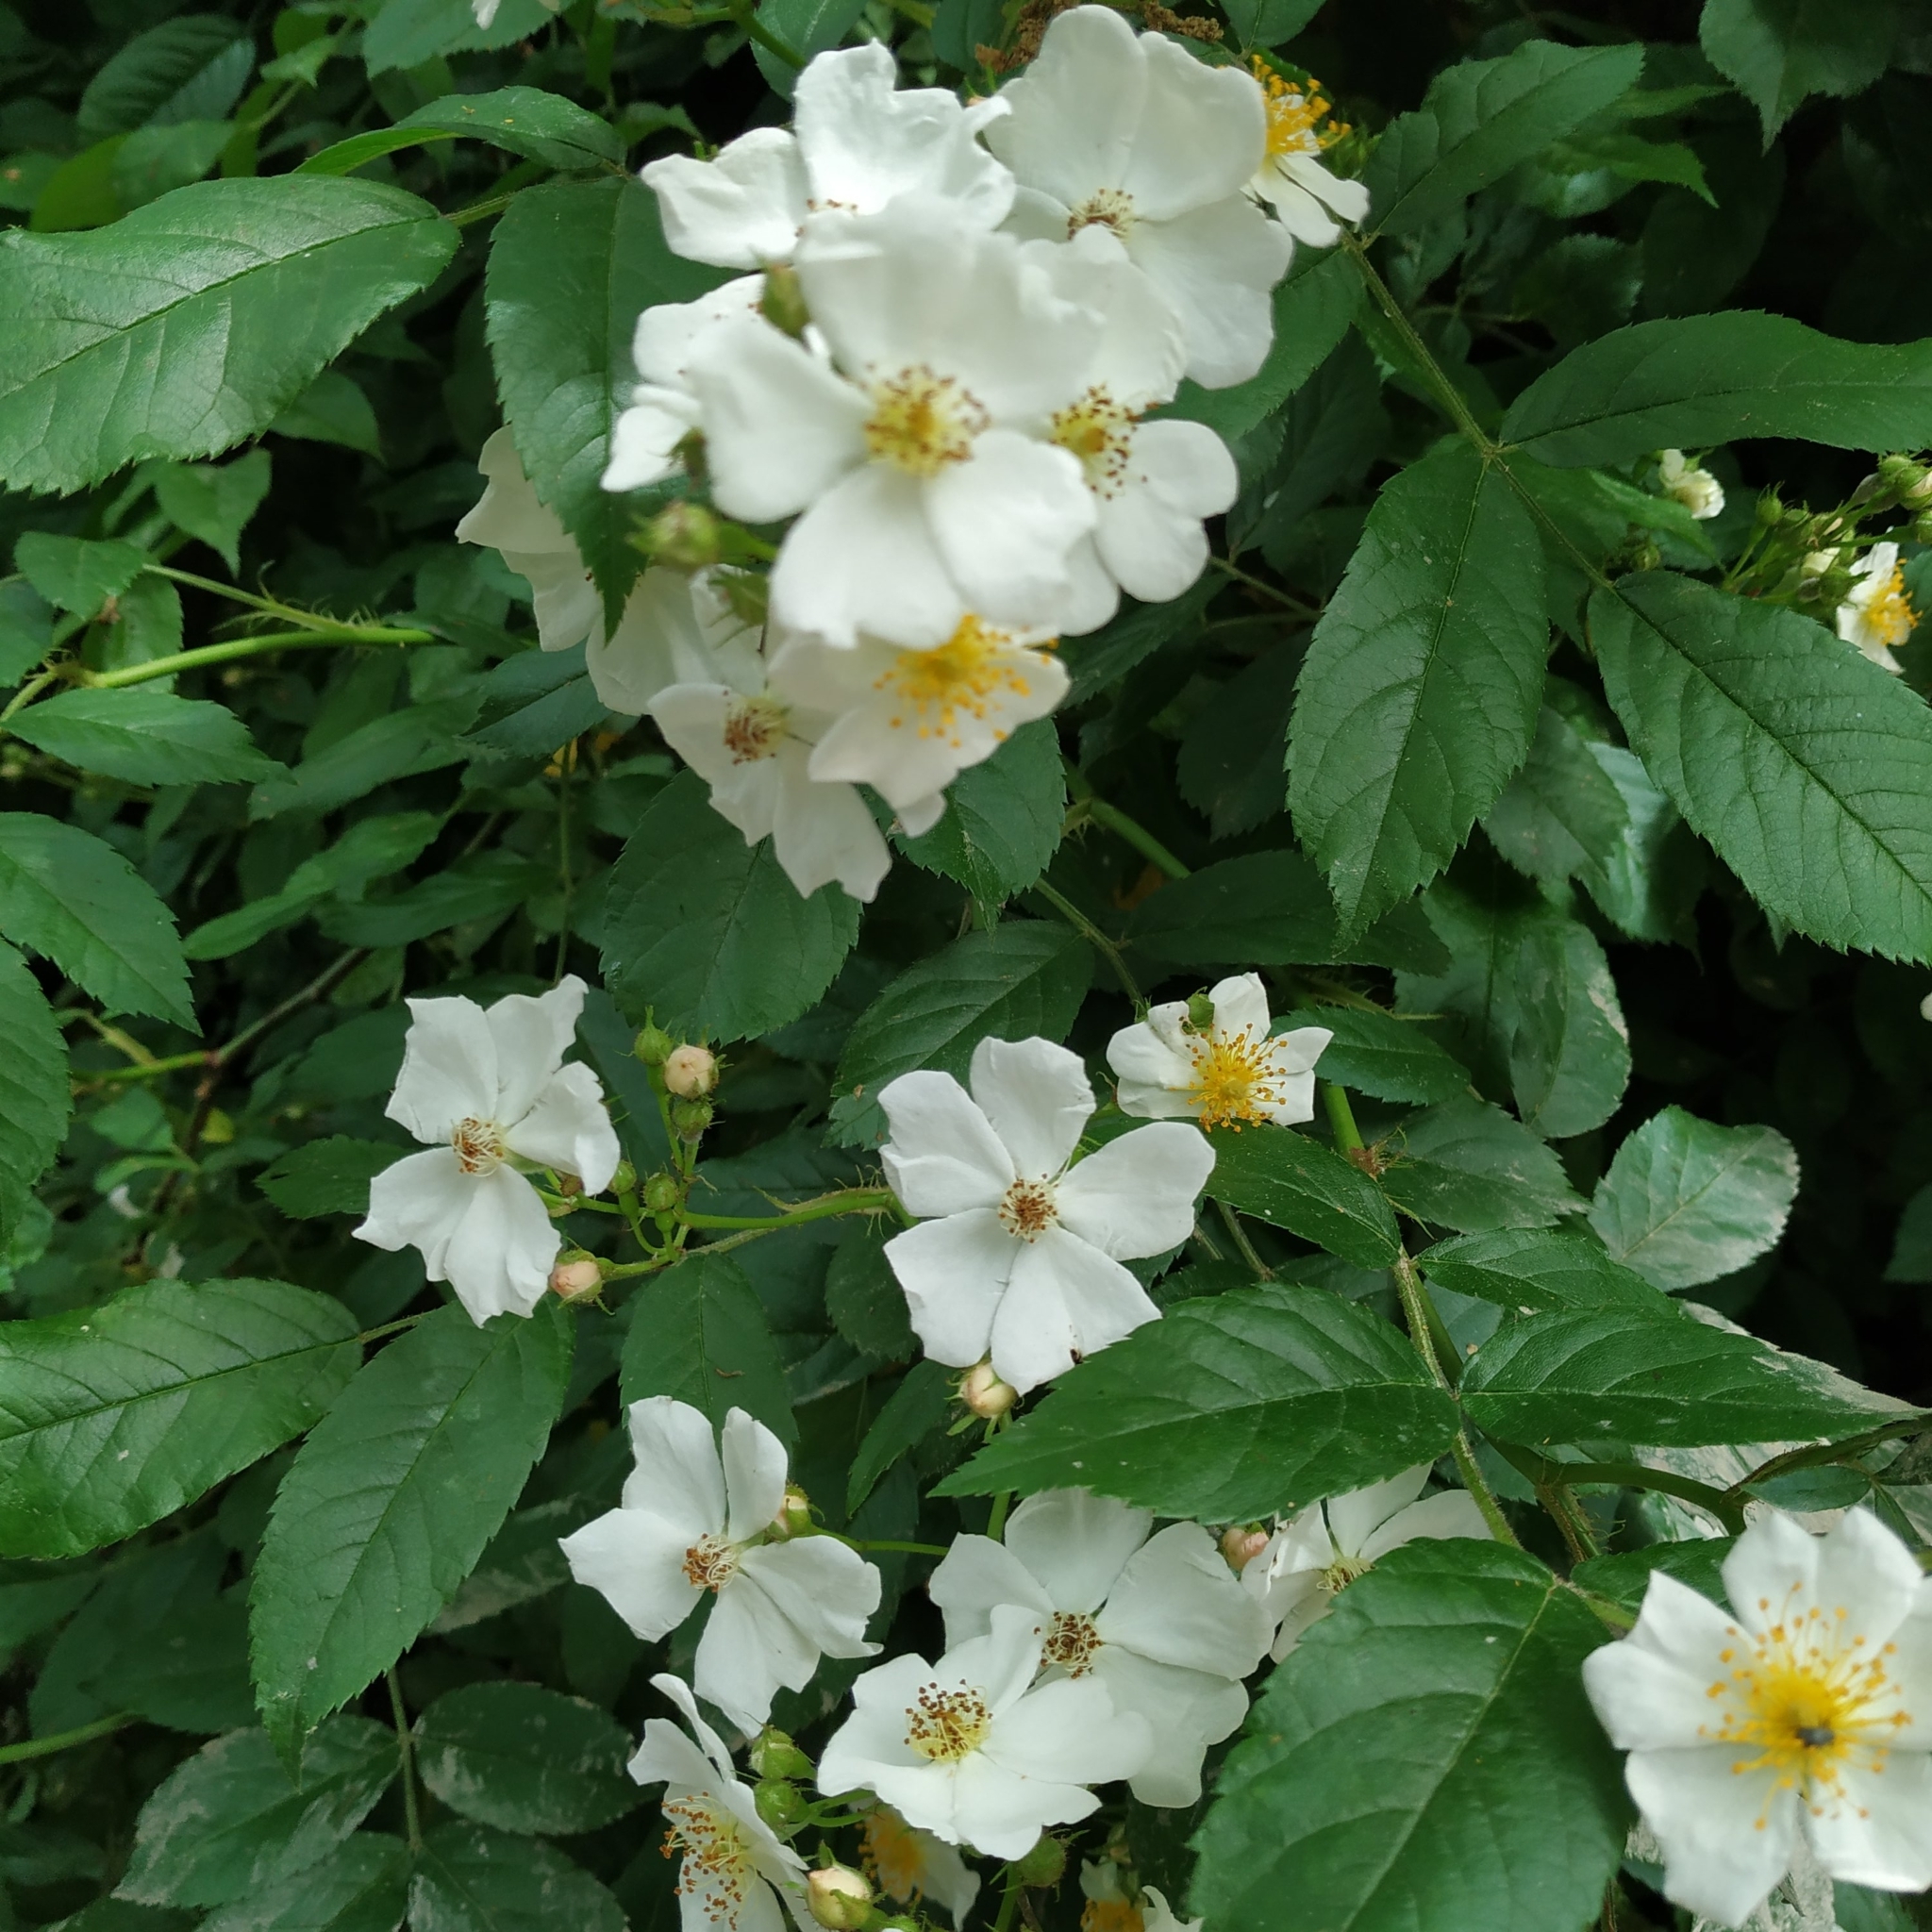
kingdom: Plantae
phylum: Tracheophyta
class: Magnoliopsida
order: Rosales
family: Rosaceae
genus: Rosa
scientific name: Rosa multiflora
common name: Multiflora rose
